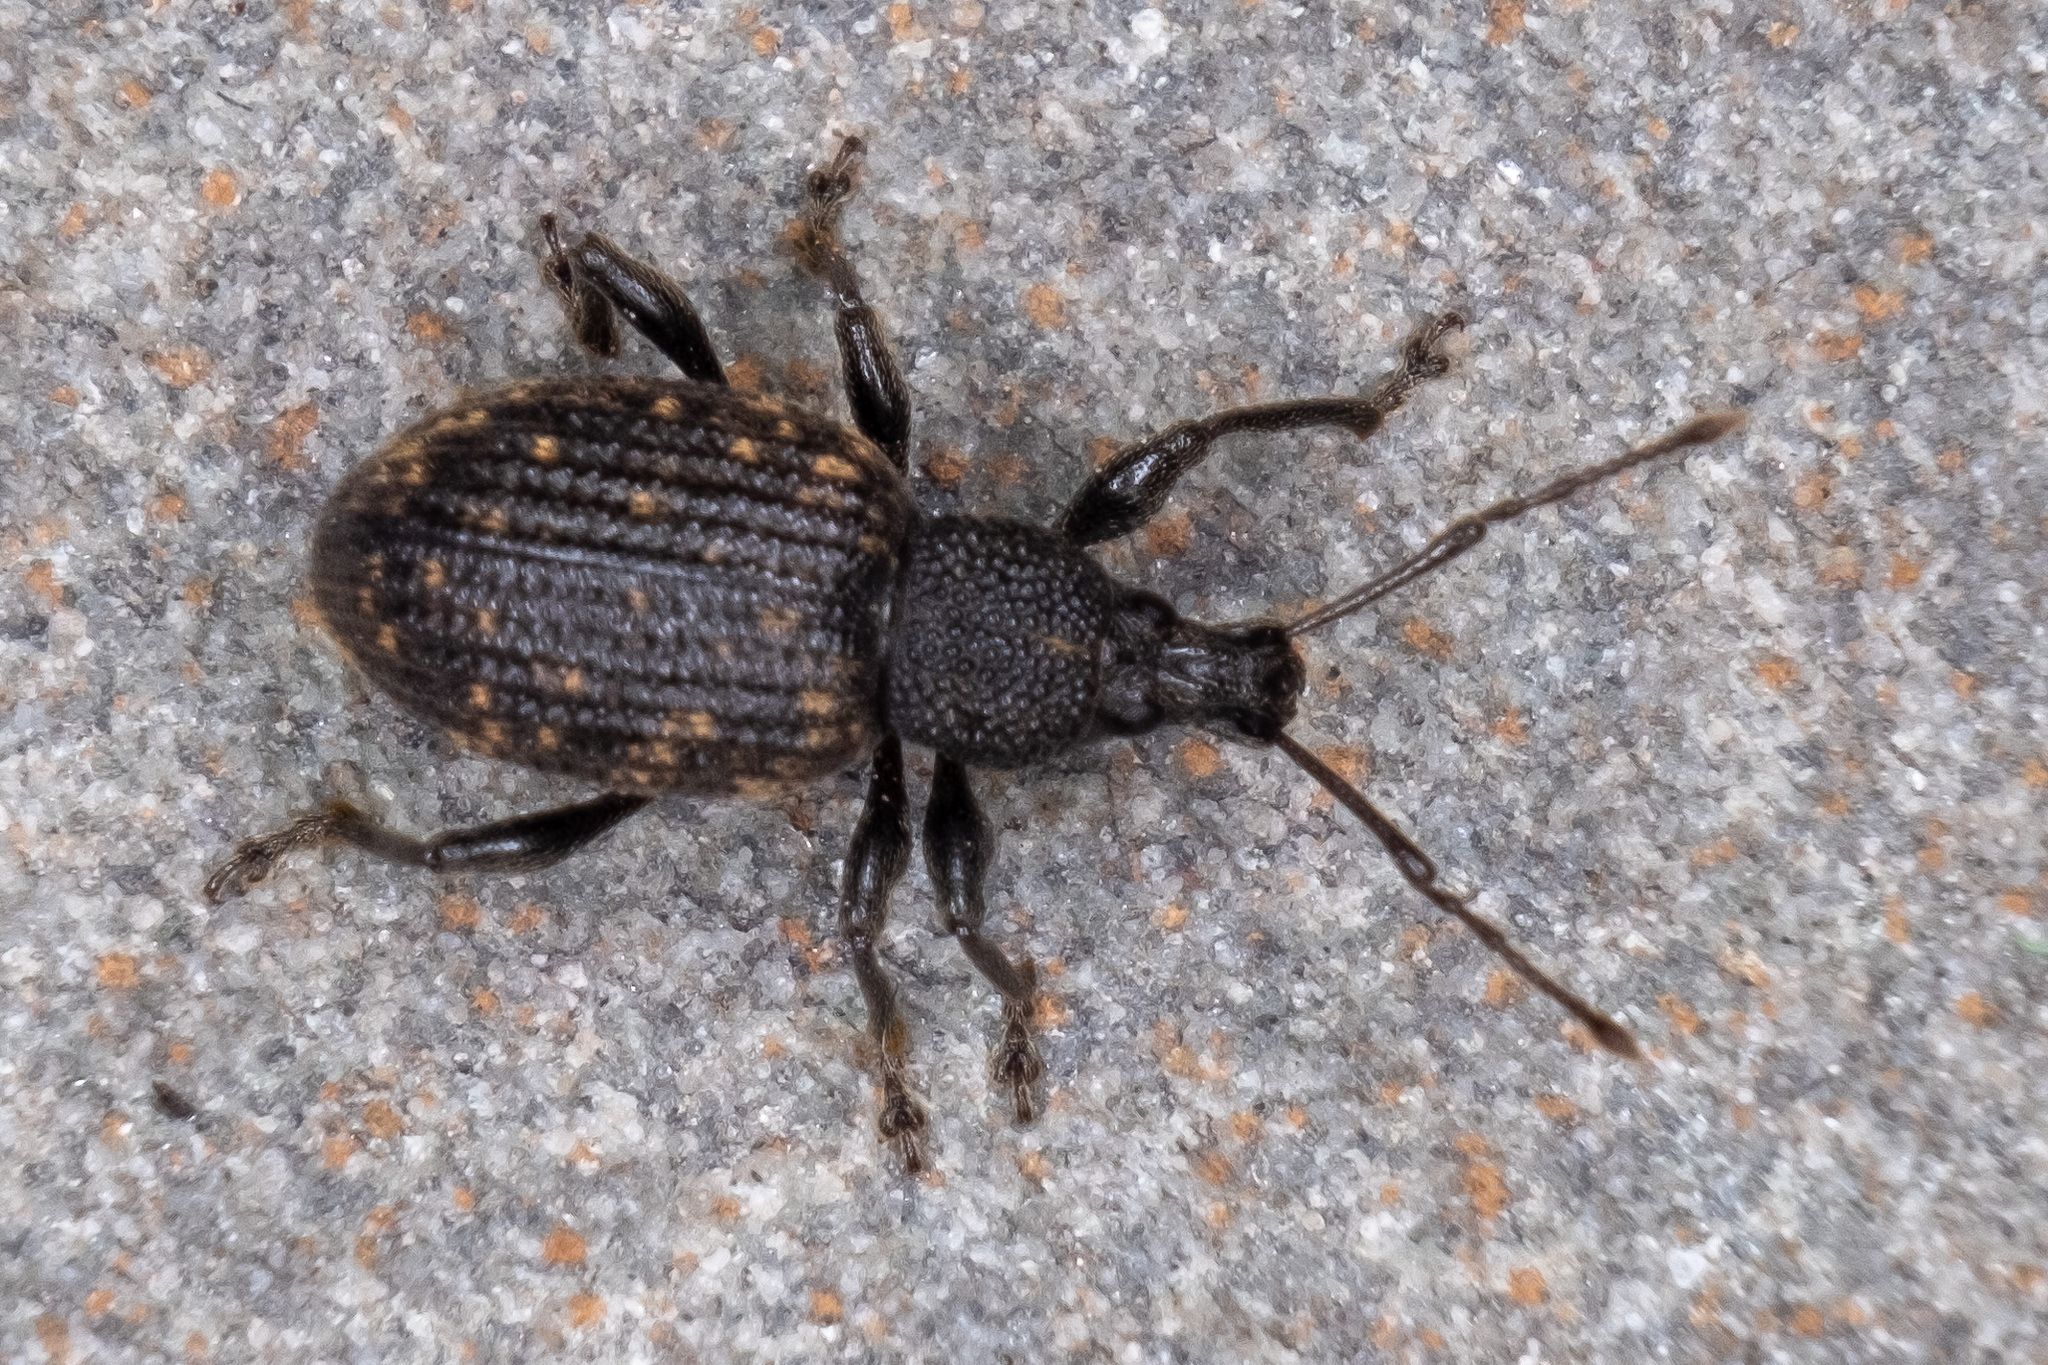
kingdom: Animalia
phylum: Arthropoda
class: Insecta
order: Coleoptera
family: Curculionidae
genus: Otiorhynchus
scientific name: Otiorhynchus sulcatus
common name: Black vine weevil
